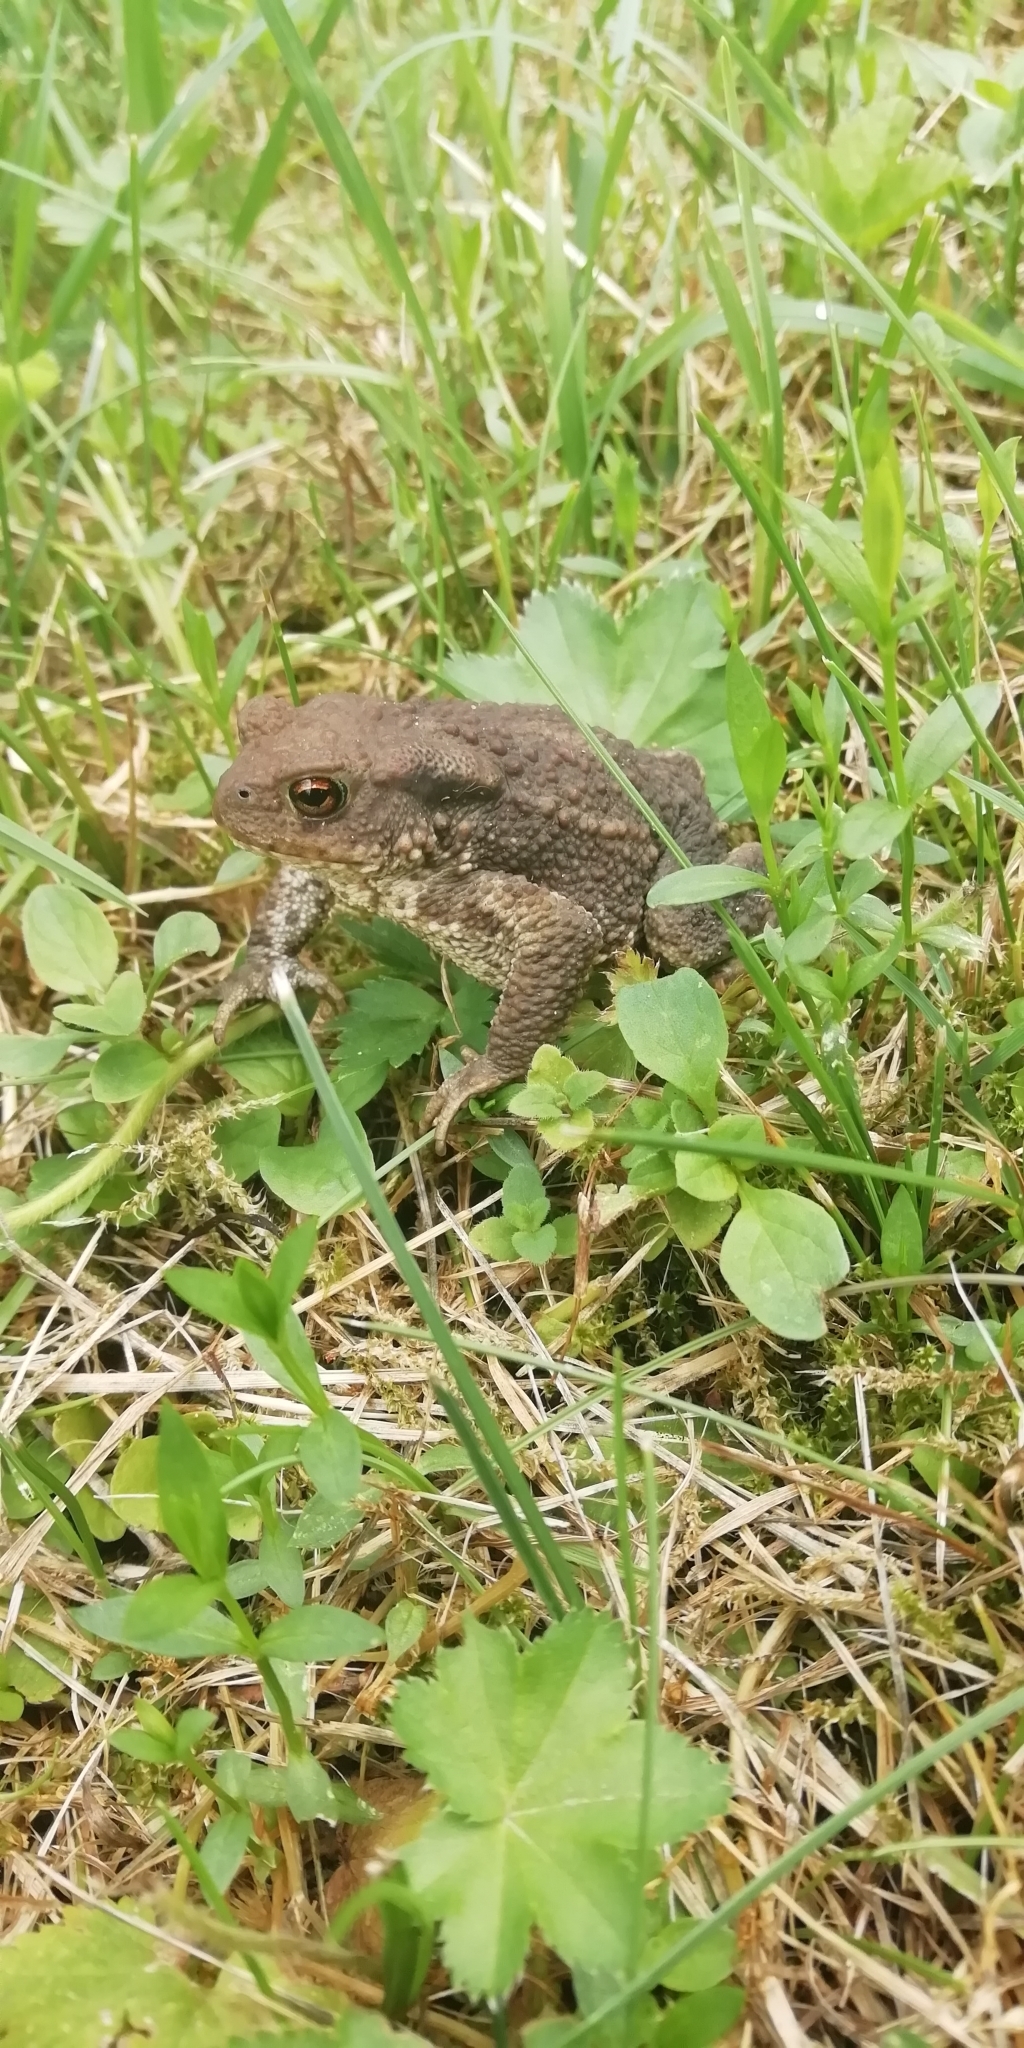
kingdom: Animalia
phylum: Chordata
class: Amphibia
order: Anura
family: Bufonidae
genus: Bufo
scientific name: Bufo bufo
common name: Common toad
